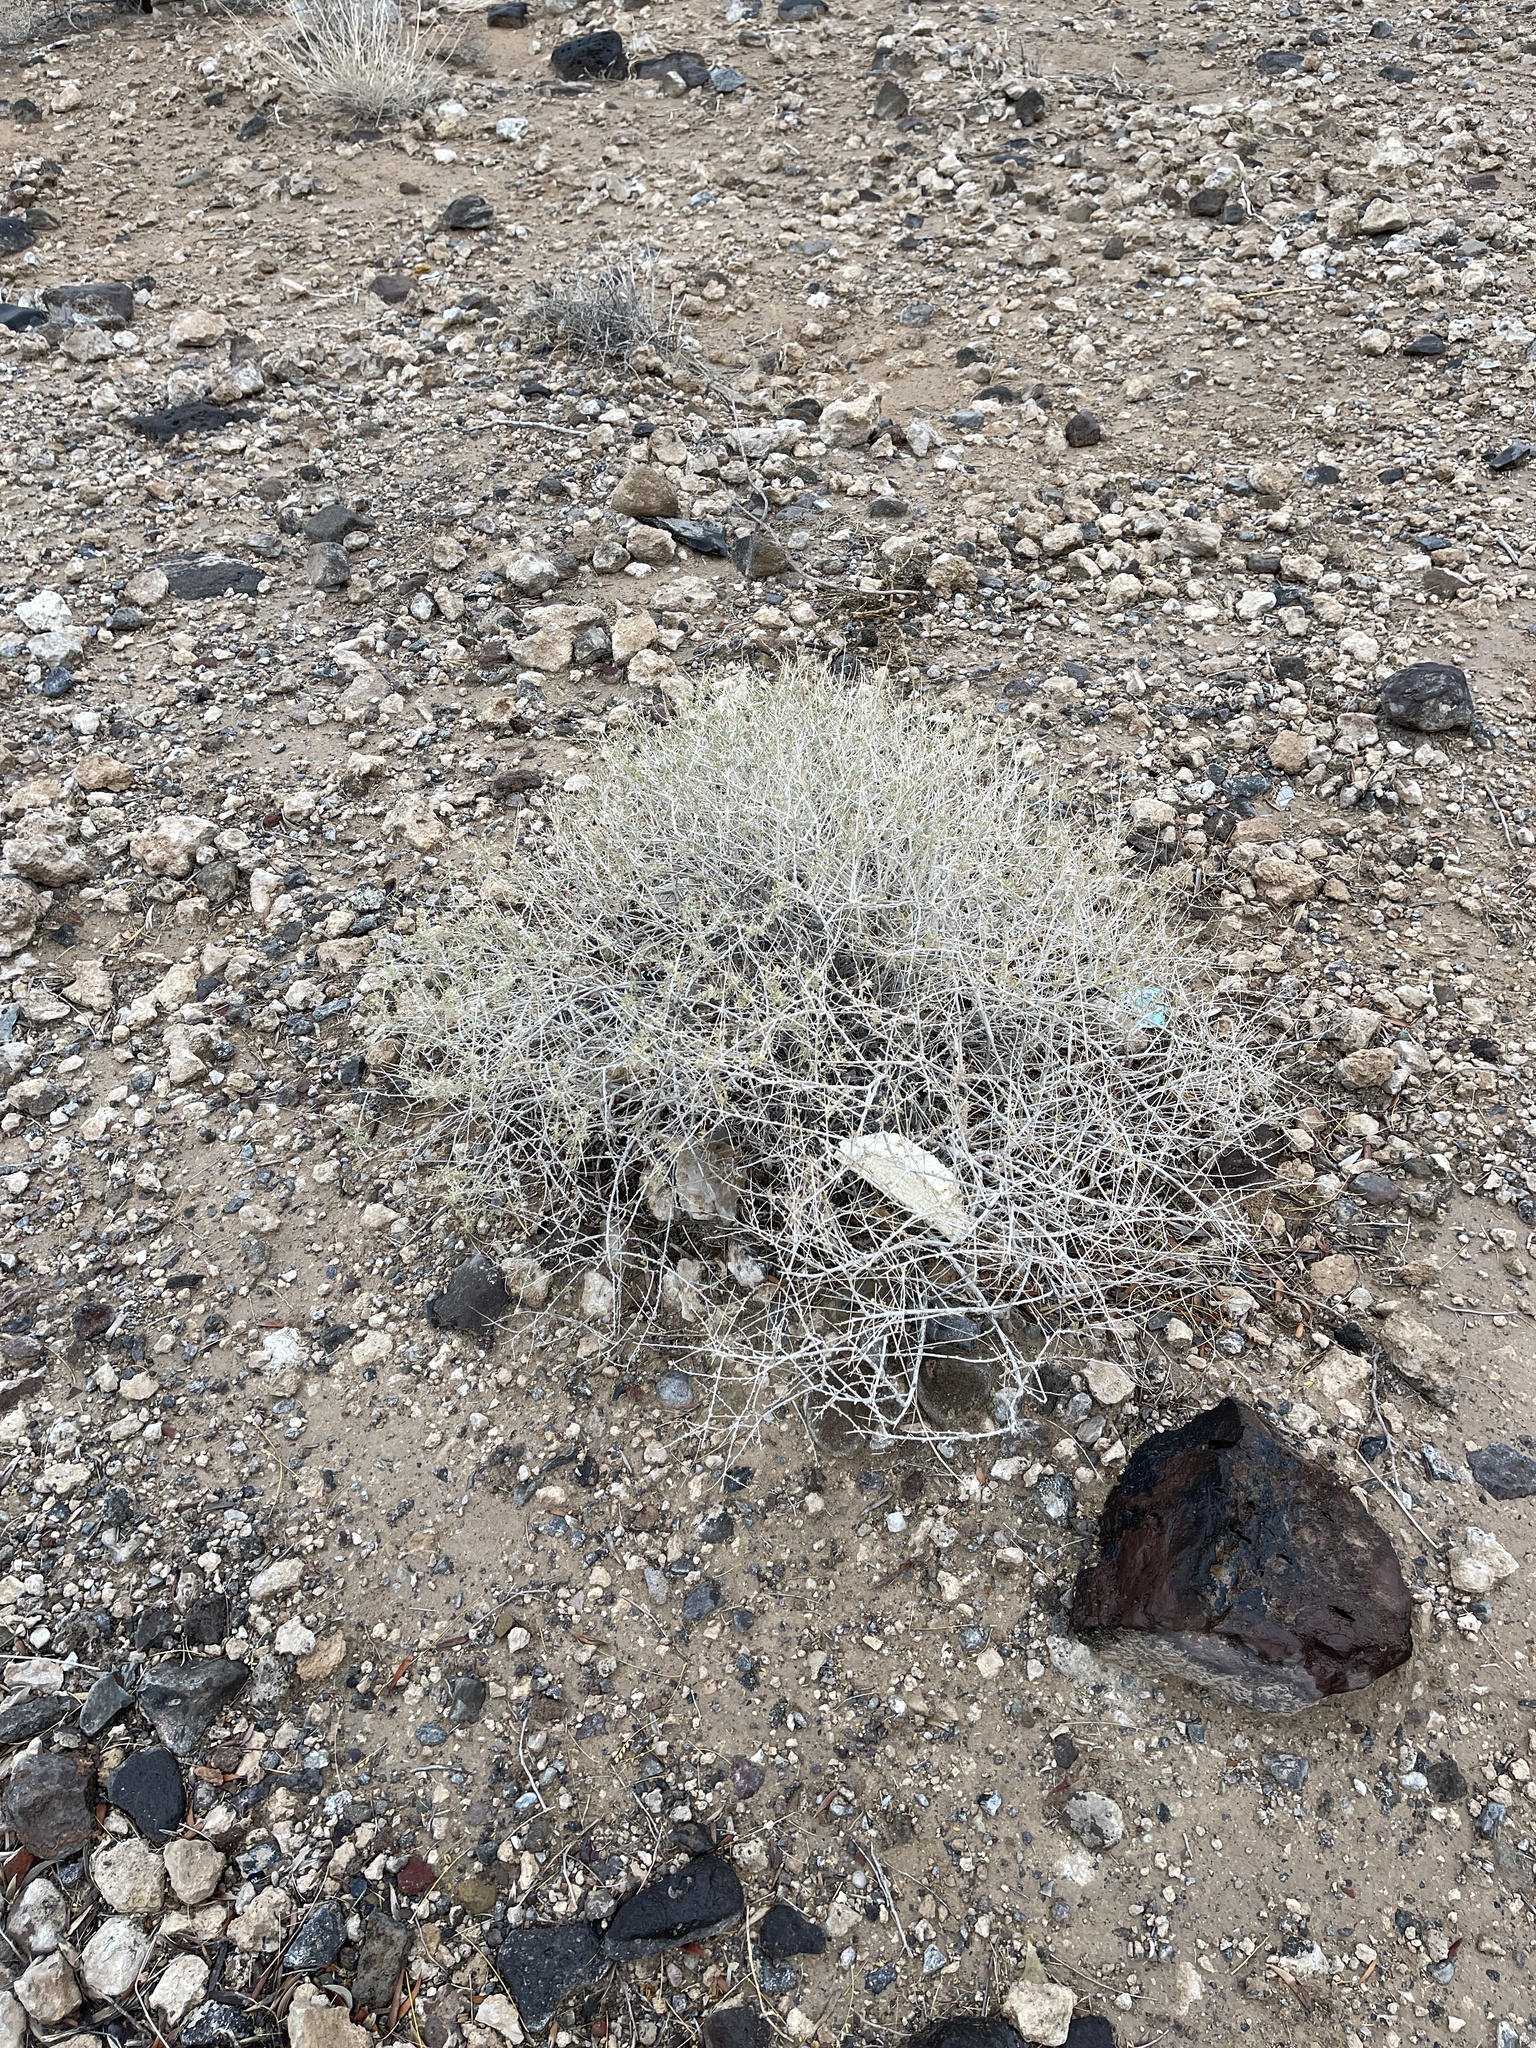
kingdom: Plantae
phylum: Tracheophyta
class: Magnoliopsida
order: Asterales
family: Asteraceae
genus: Ambrosia
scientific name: Ambrosia dumosa
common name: Bur-sage
